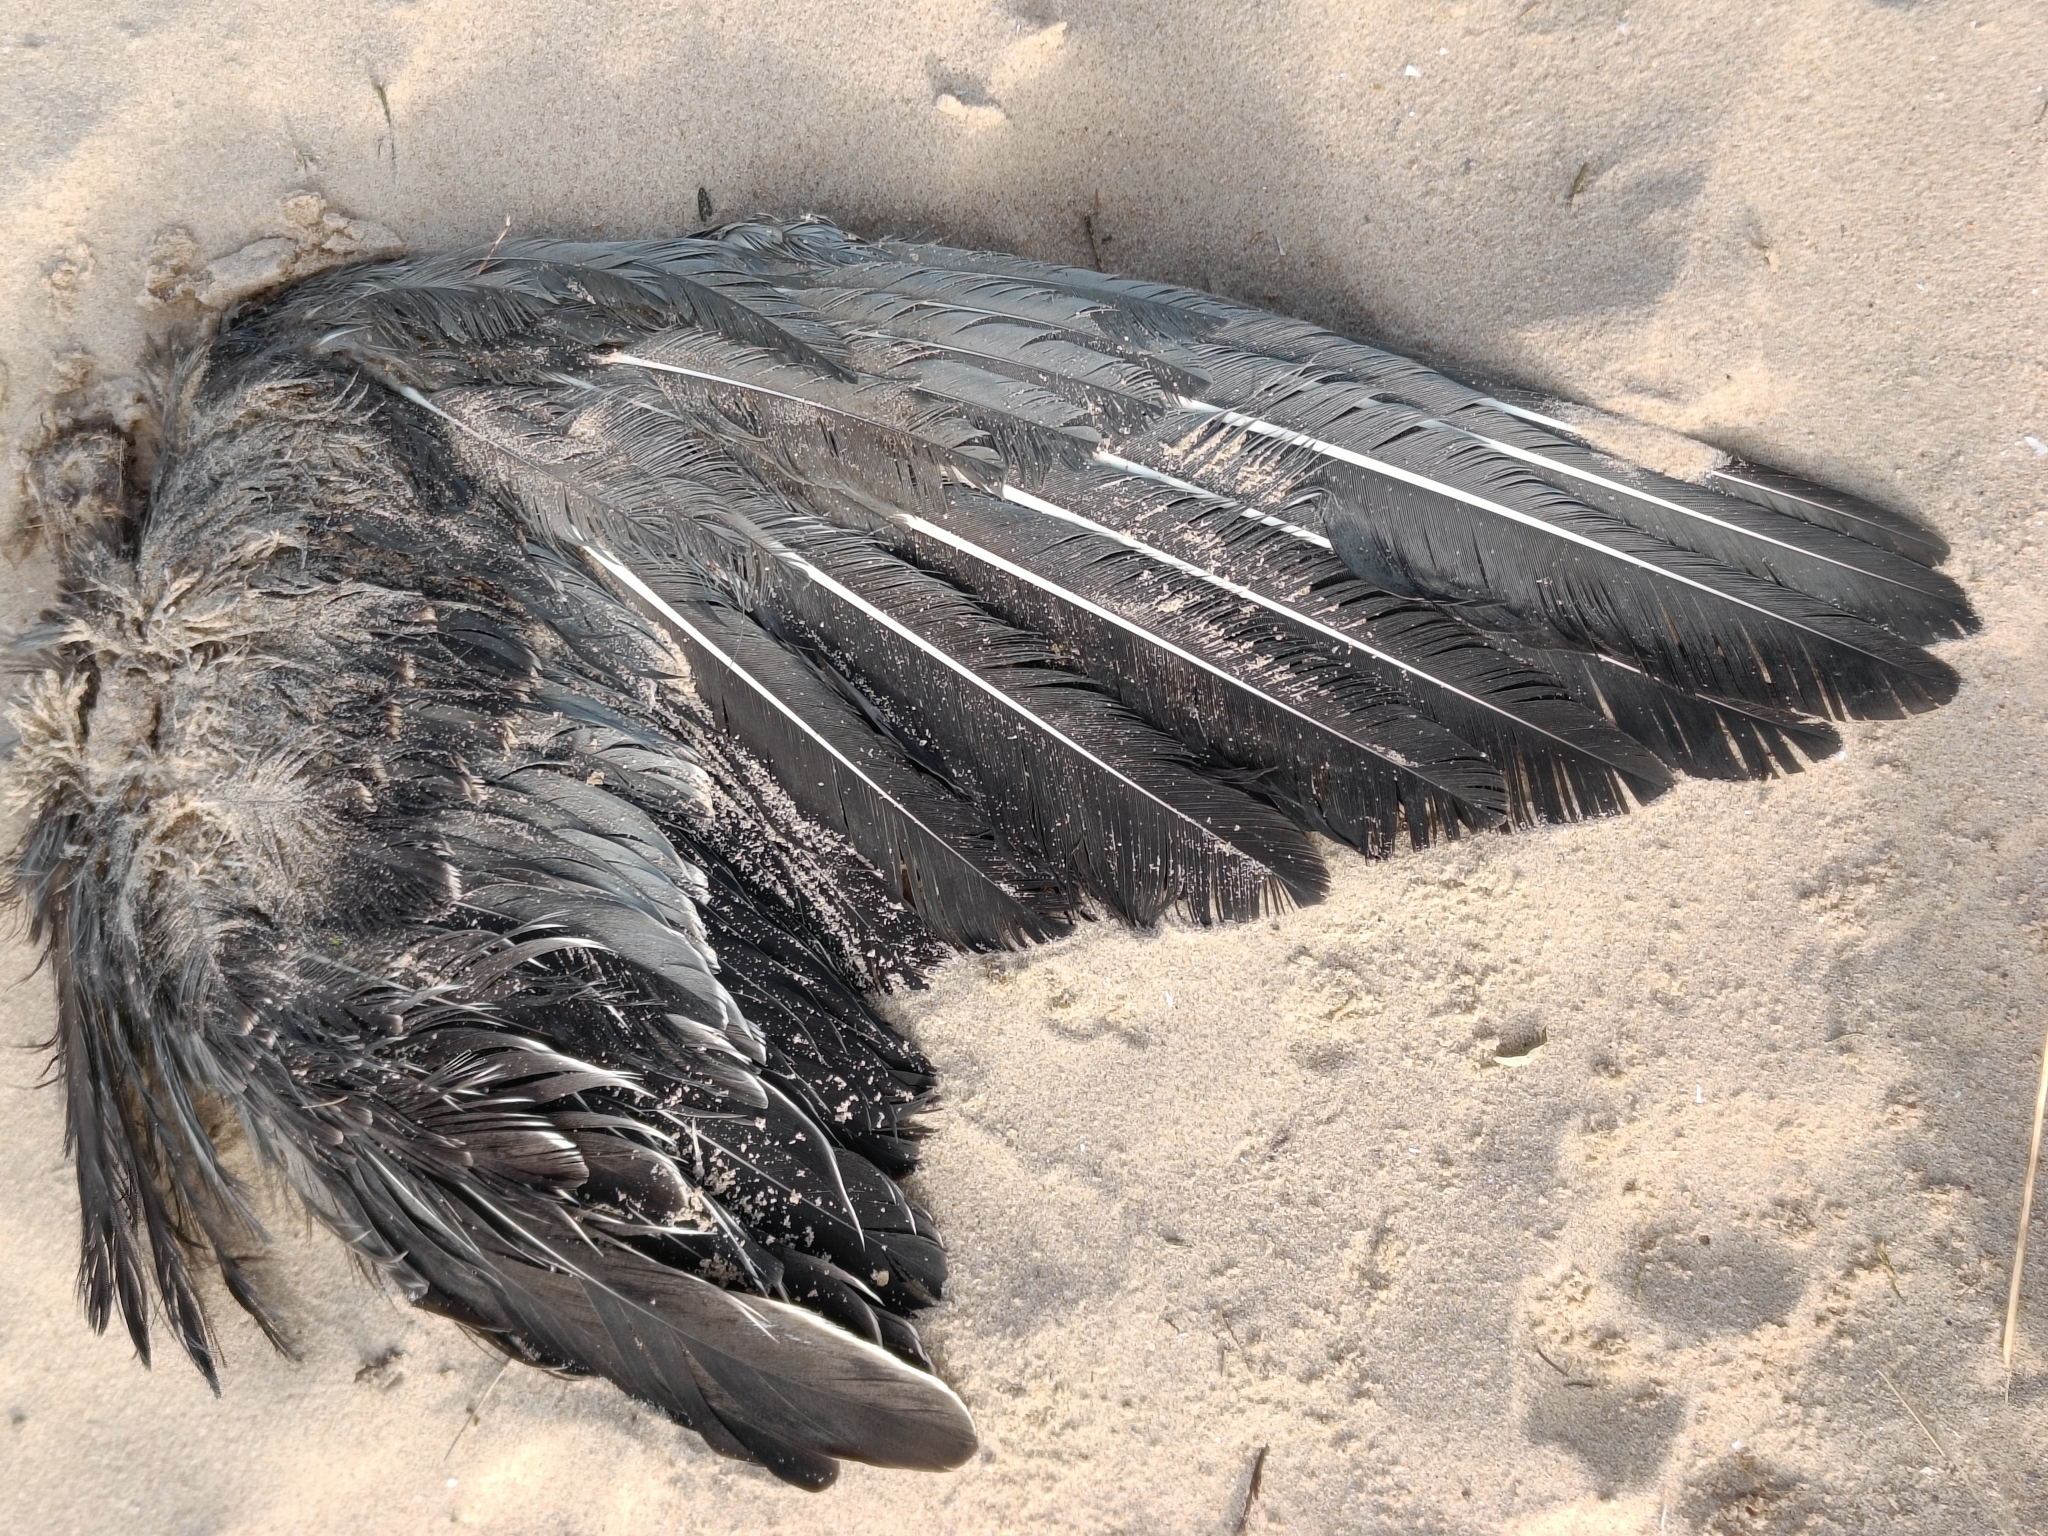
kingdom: Animalia
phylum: Chordata
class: Aves
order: Pelecaniformes
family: Ardeidae
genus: Ardea
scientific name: Ardea cinerea
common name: Grey heron
